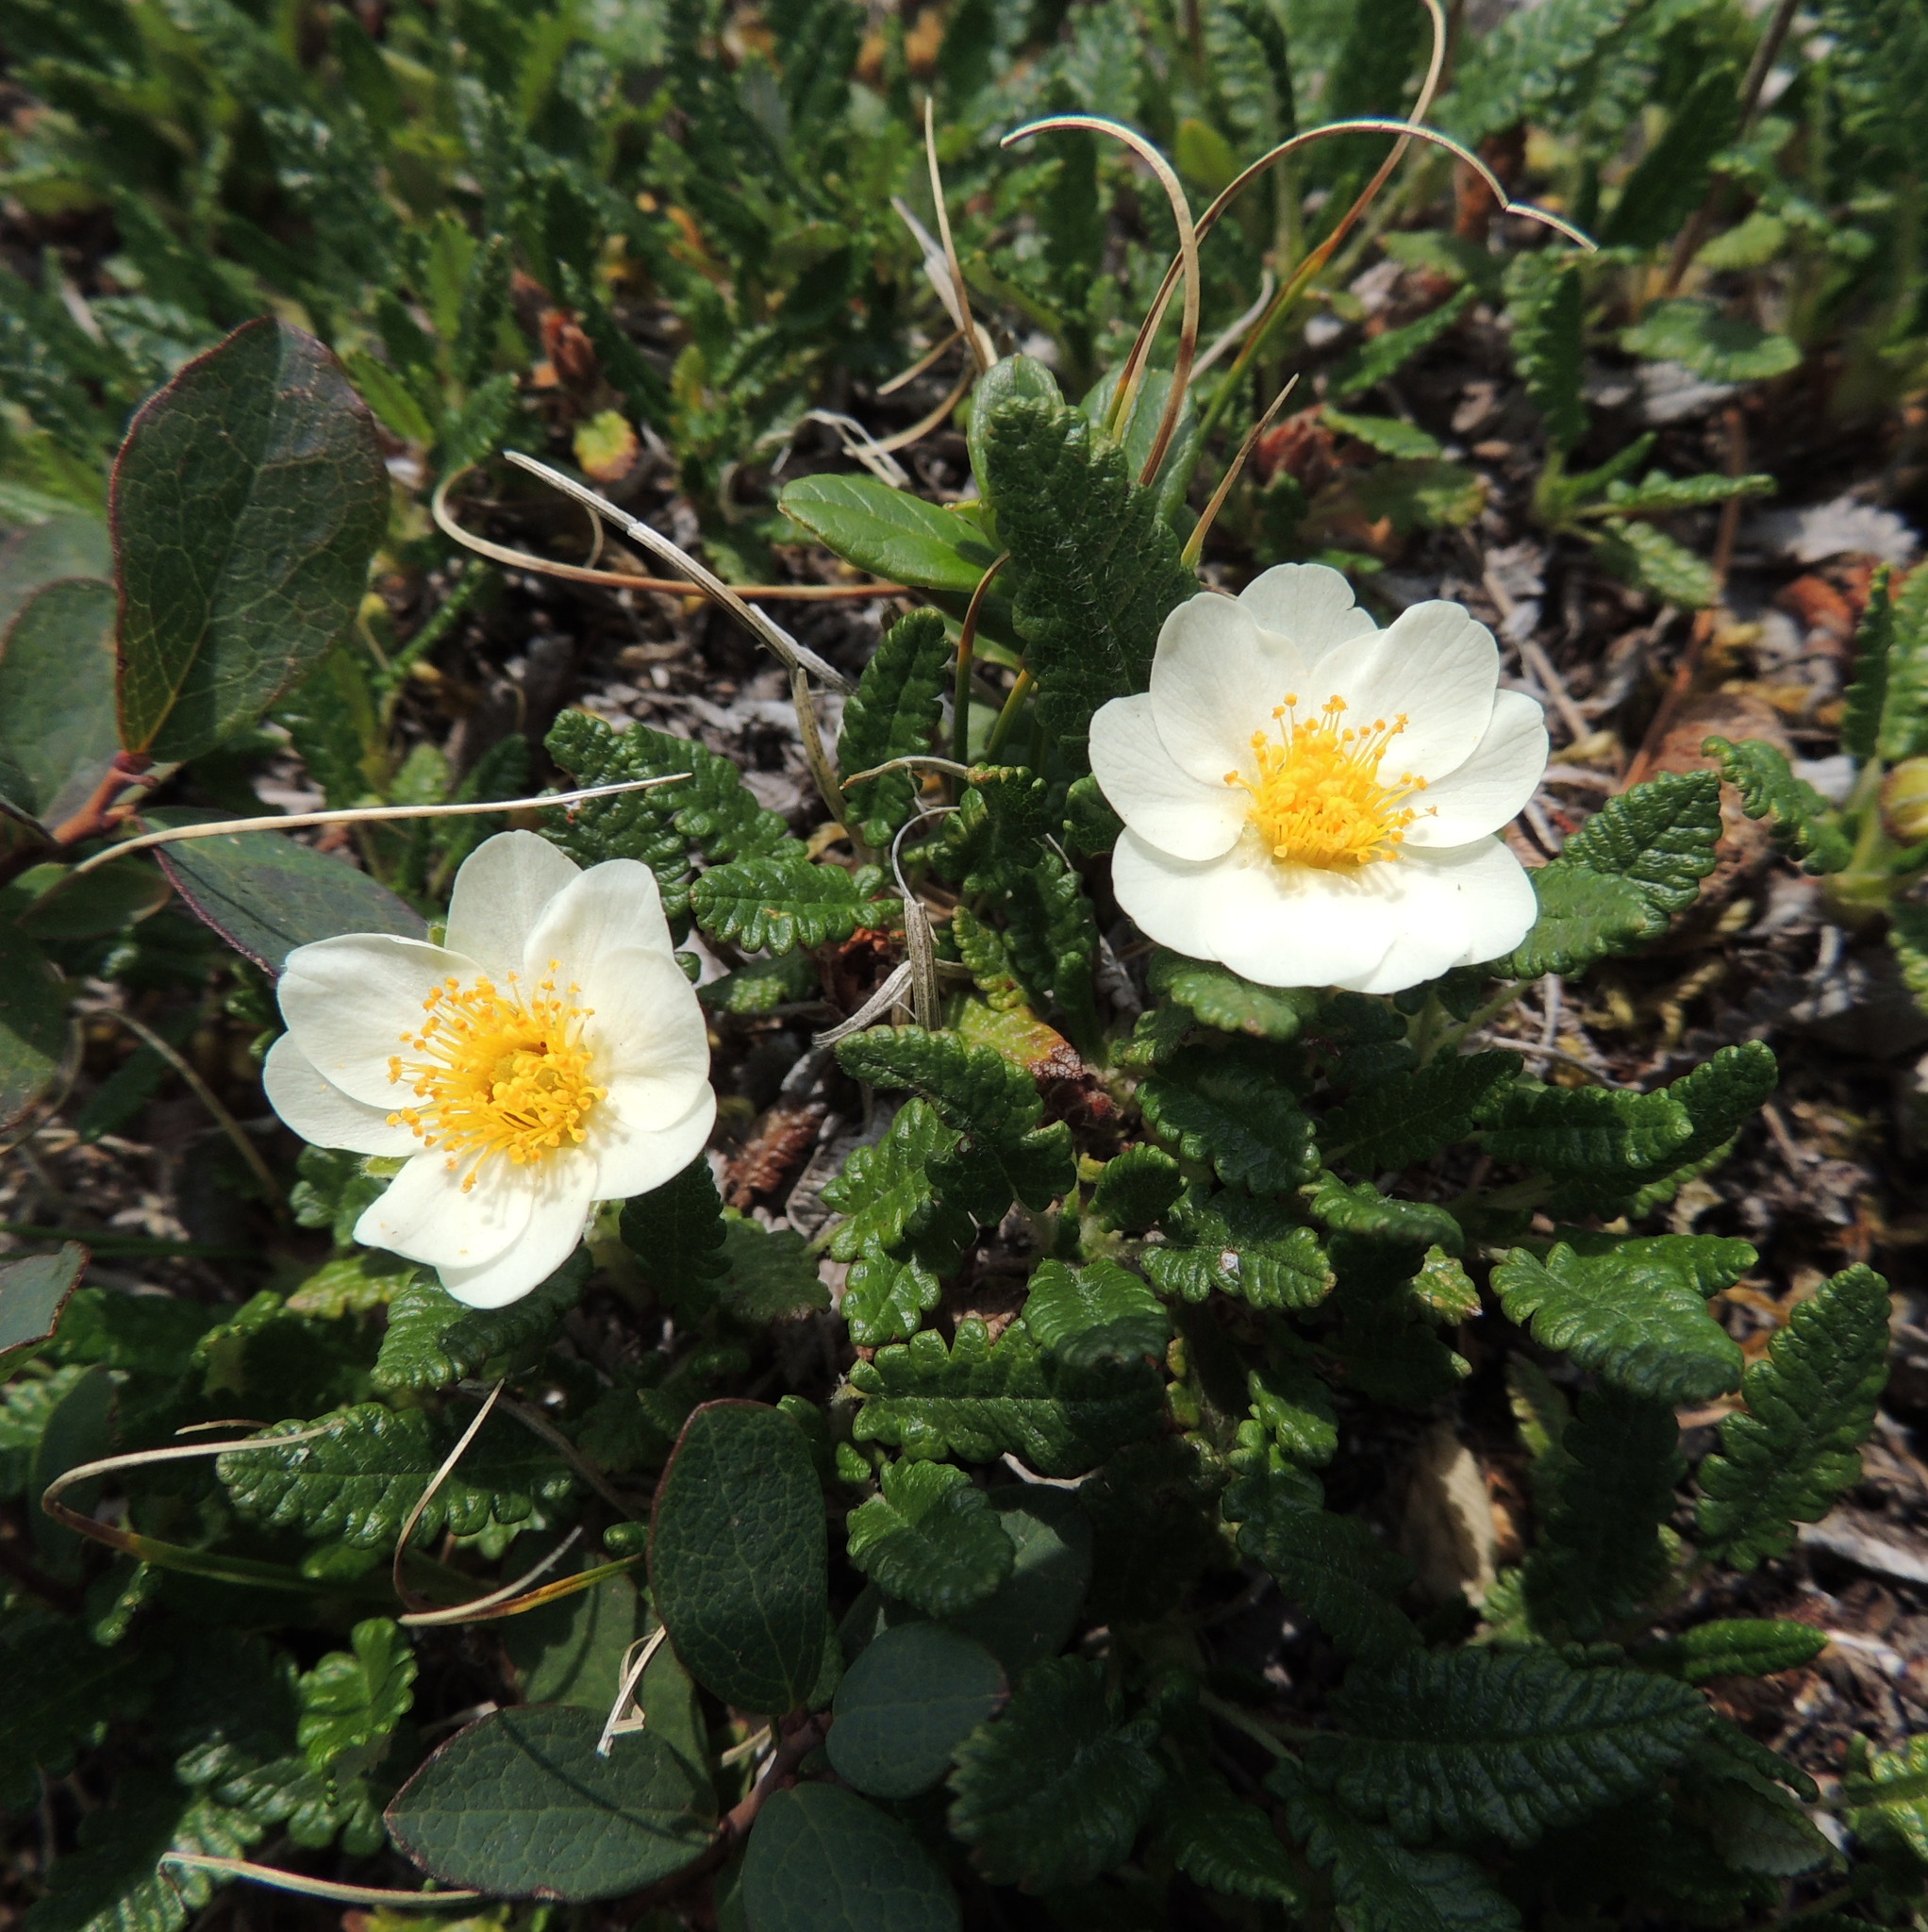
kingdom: Plantae
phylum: Tracheophyta
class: Magnoliopsida
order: Rosales
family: Rosaceae
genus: Dryas
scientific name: Dryas octopetala
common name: Eight-petal mountain-avens
